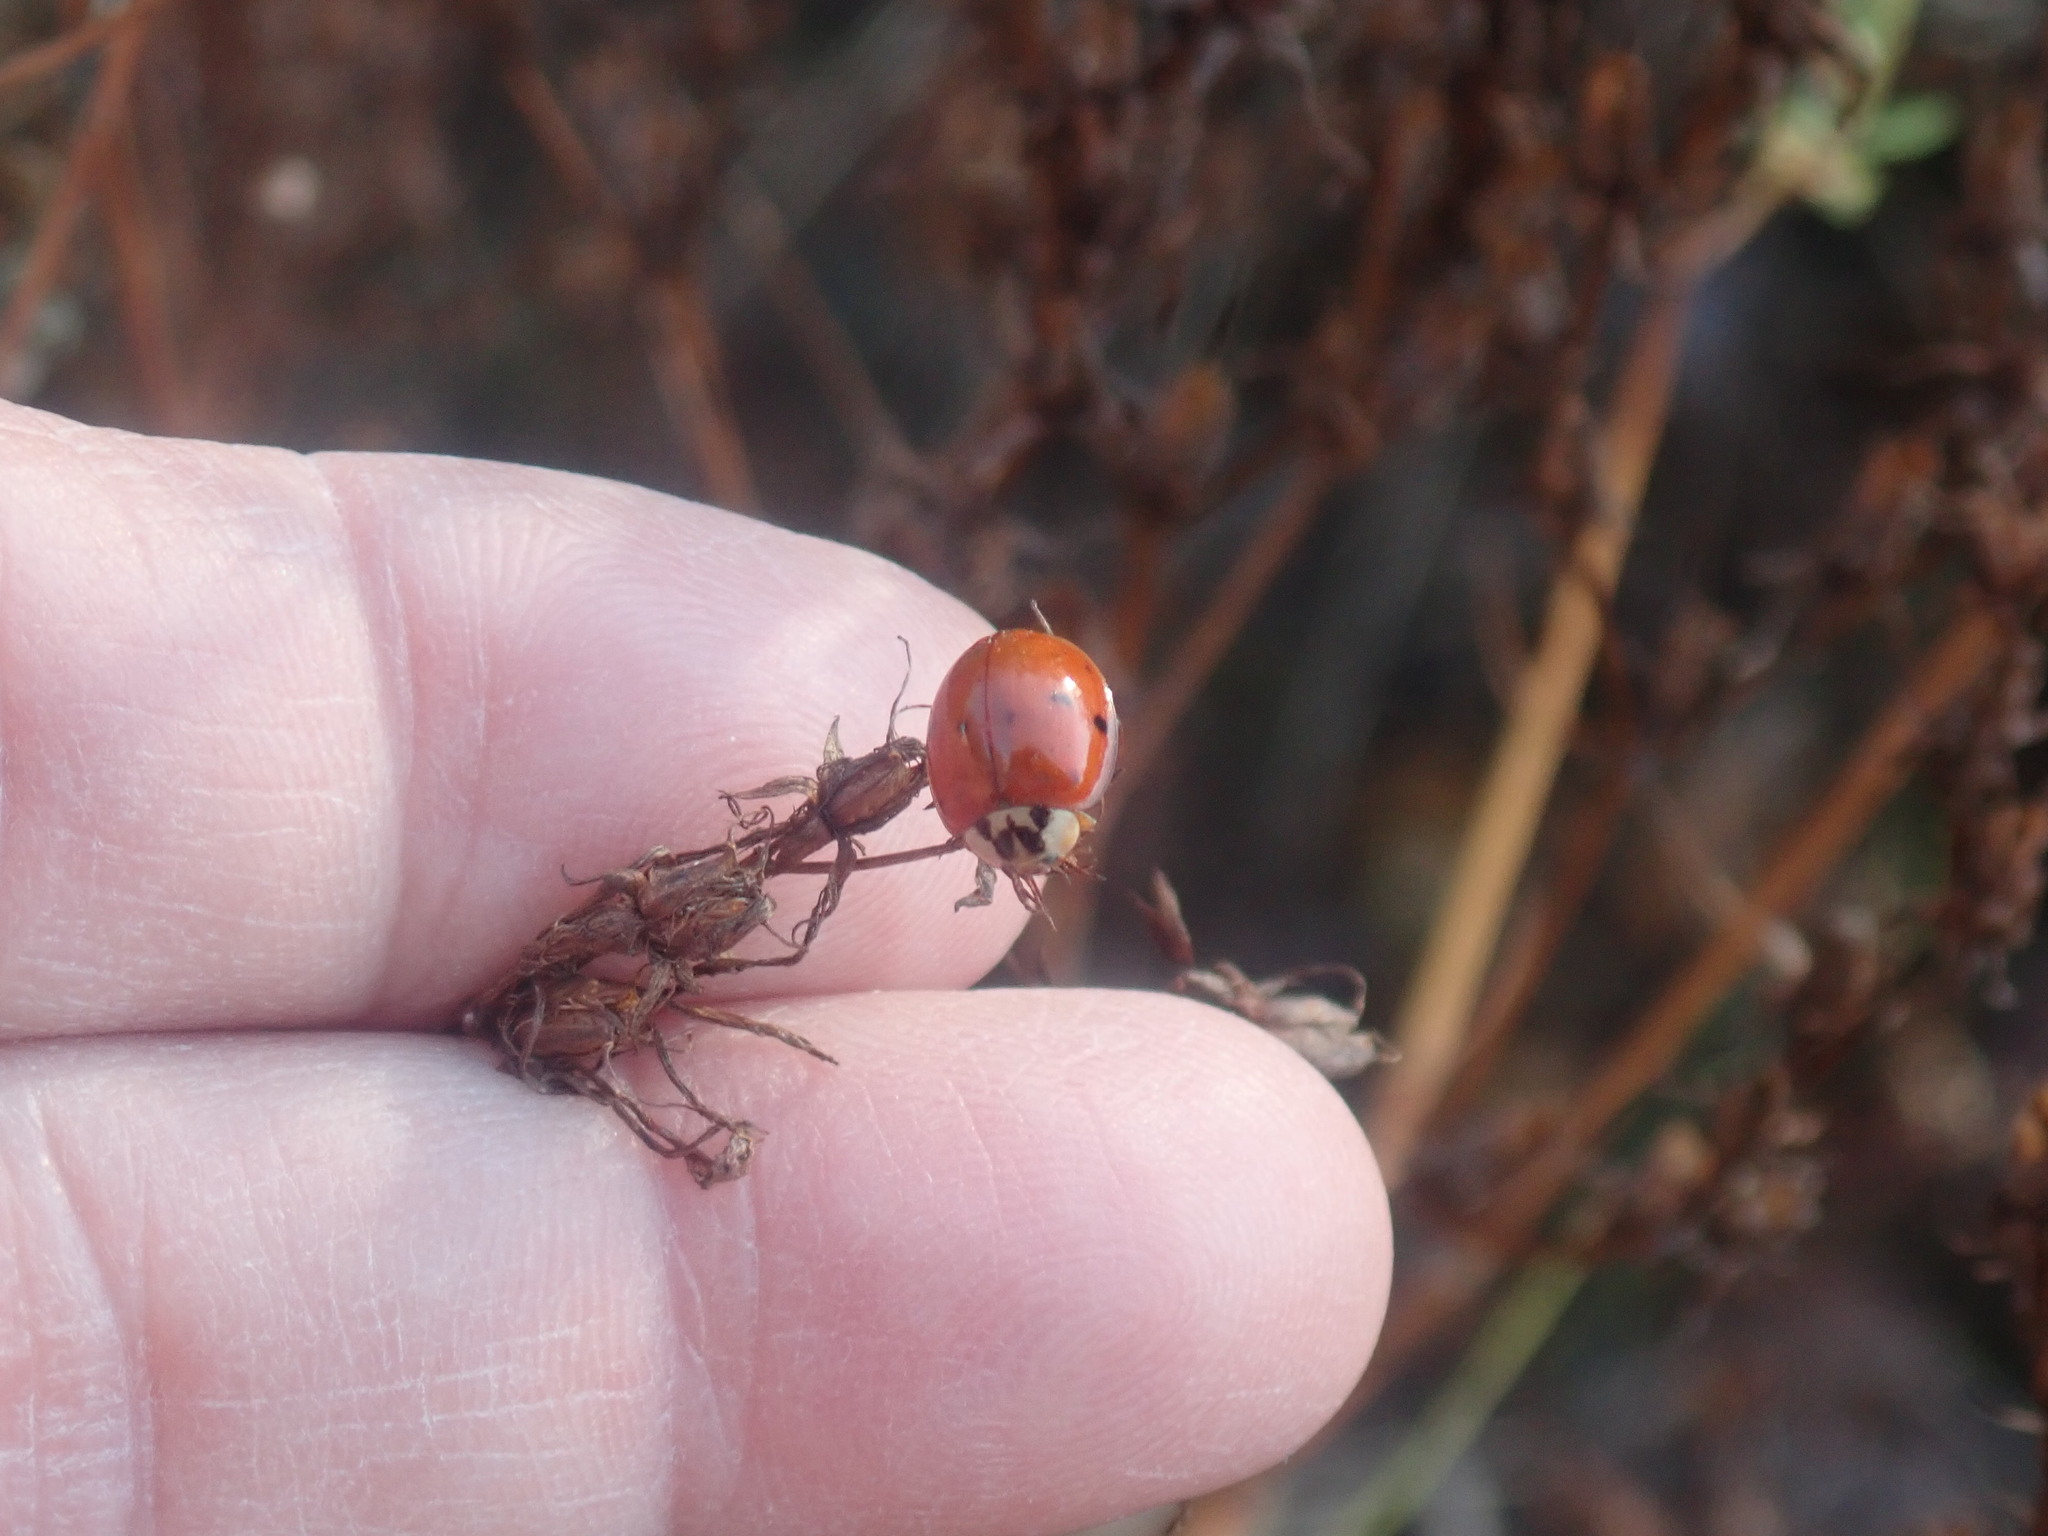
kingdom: Animalia
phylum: Arthropoda
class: Insecta
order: Coleoptera
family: Coccinellidae
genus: Harmonia
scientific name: Harmonia axyridis
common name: Harlequin ladybird
